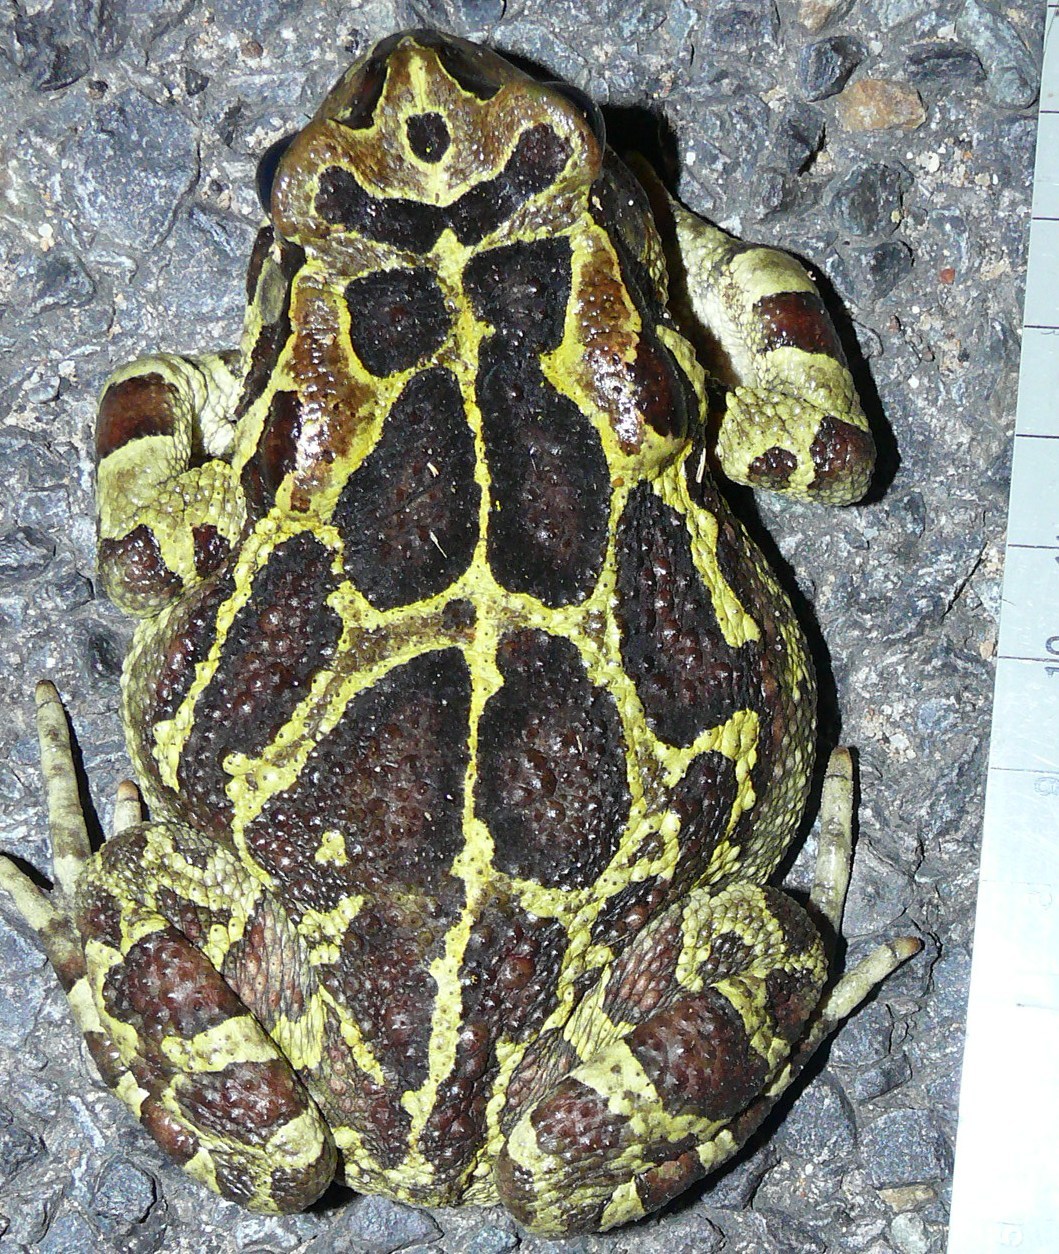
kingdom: Animalia
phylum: Chordata
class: Amphibia
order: Anura
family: Bufonidae
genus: Sclerophrys
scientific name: Sclerophrys pantherina
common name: Panther toad
